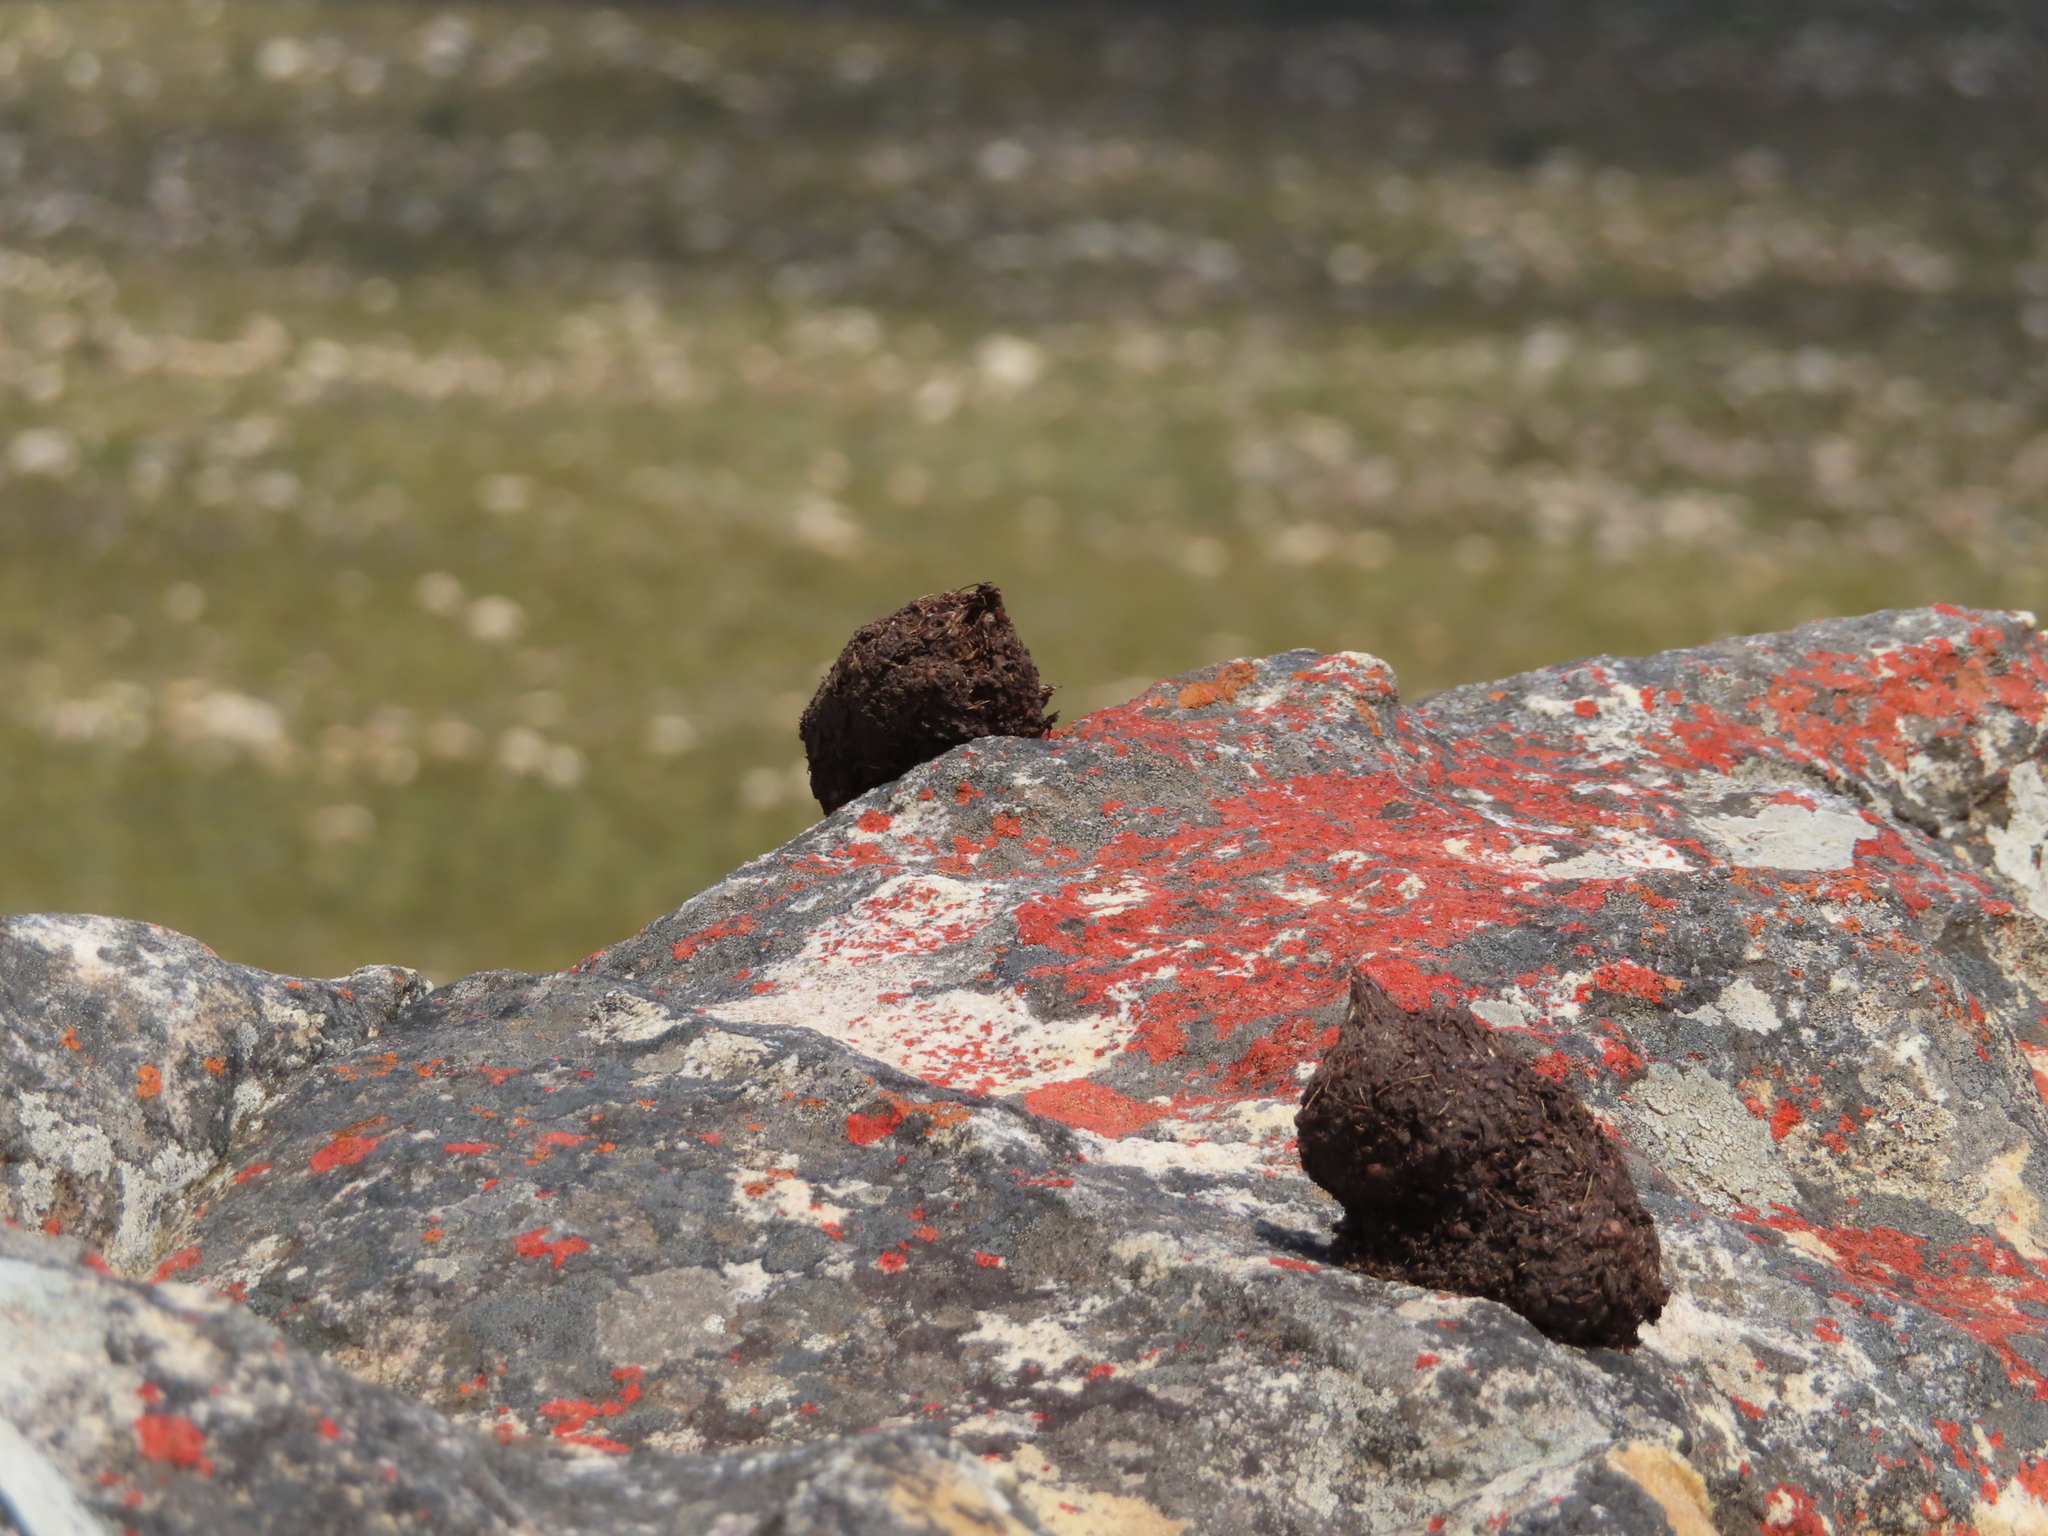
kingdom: Animalia
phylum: Chordata
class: Mammalia
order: Primates
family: Cercopithecidae
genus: Papio
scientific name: Papio ursinus
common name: Chacma baboon
